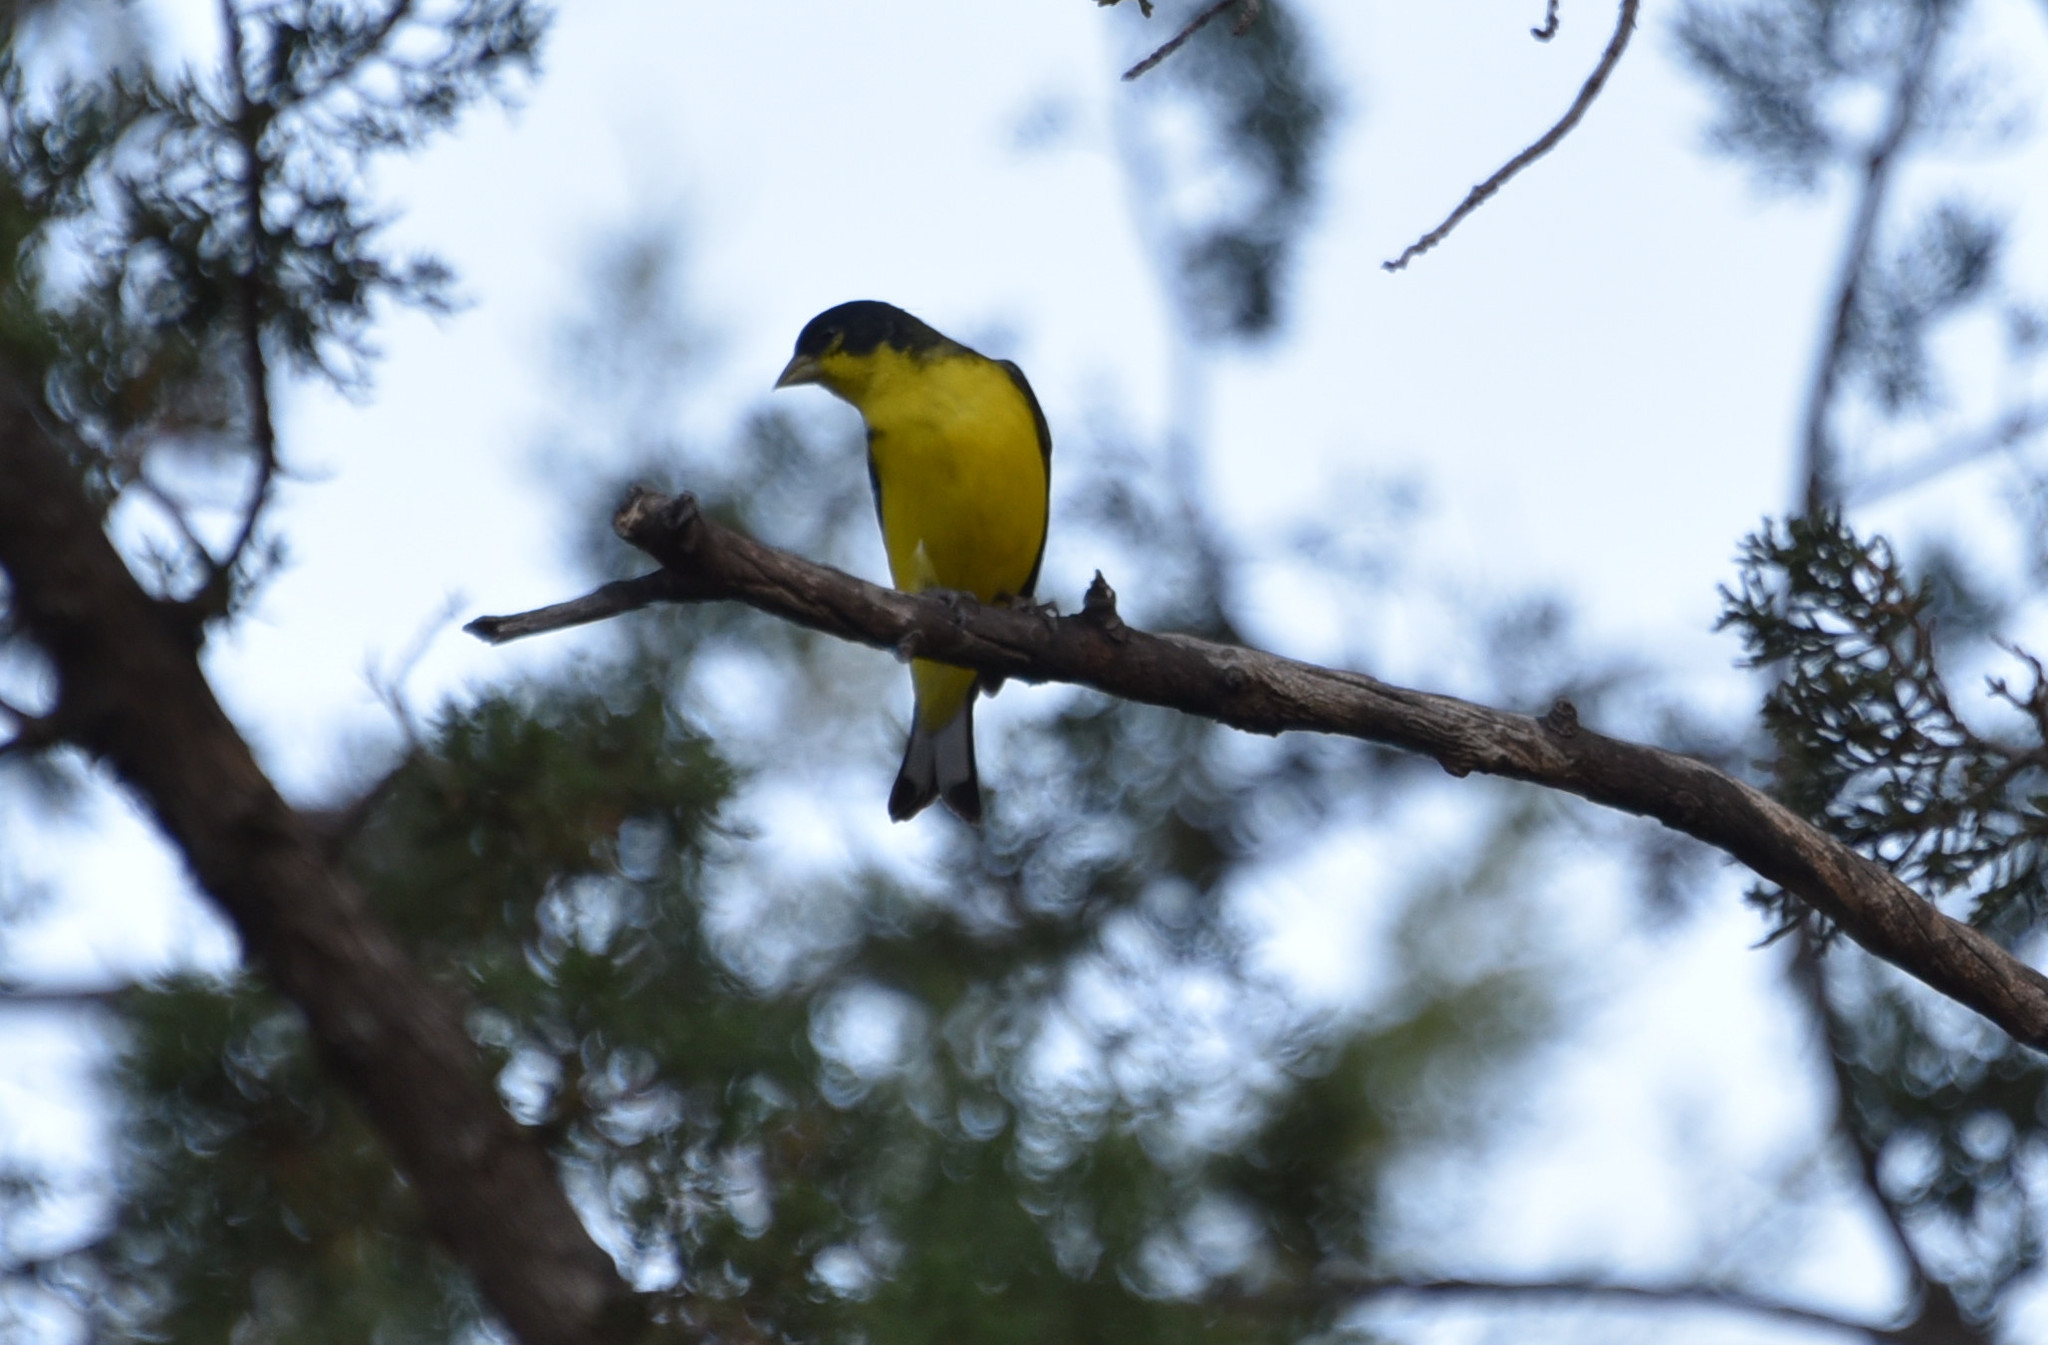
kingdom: Animalia
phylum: Chordata
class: Aves
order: Passeriformes
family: Fringillidae
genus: Spinus
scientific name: Spinus psaltria
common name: Lesser goldfinch
